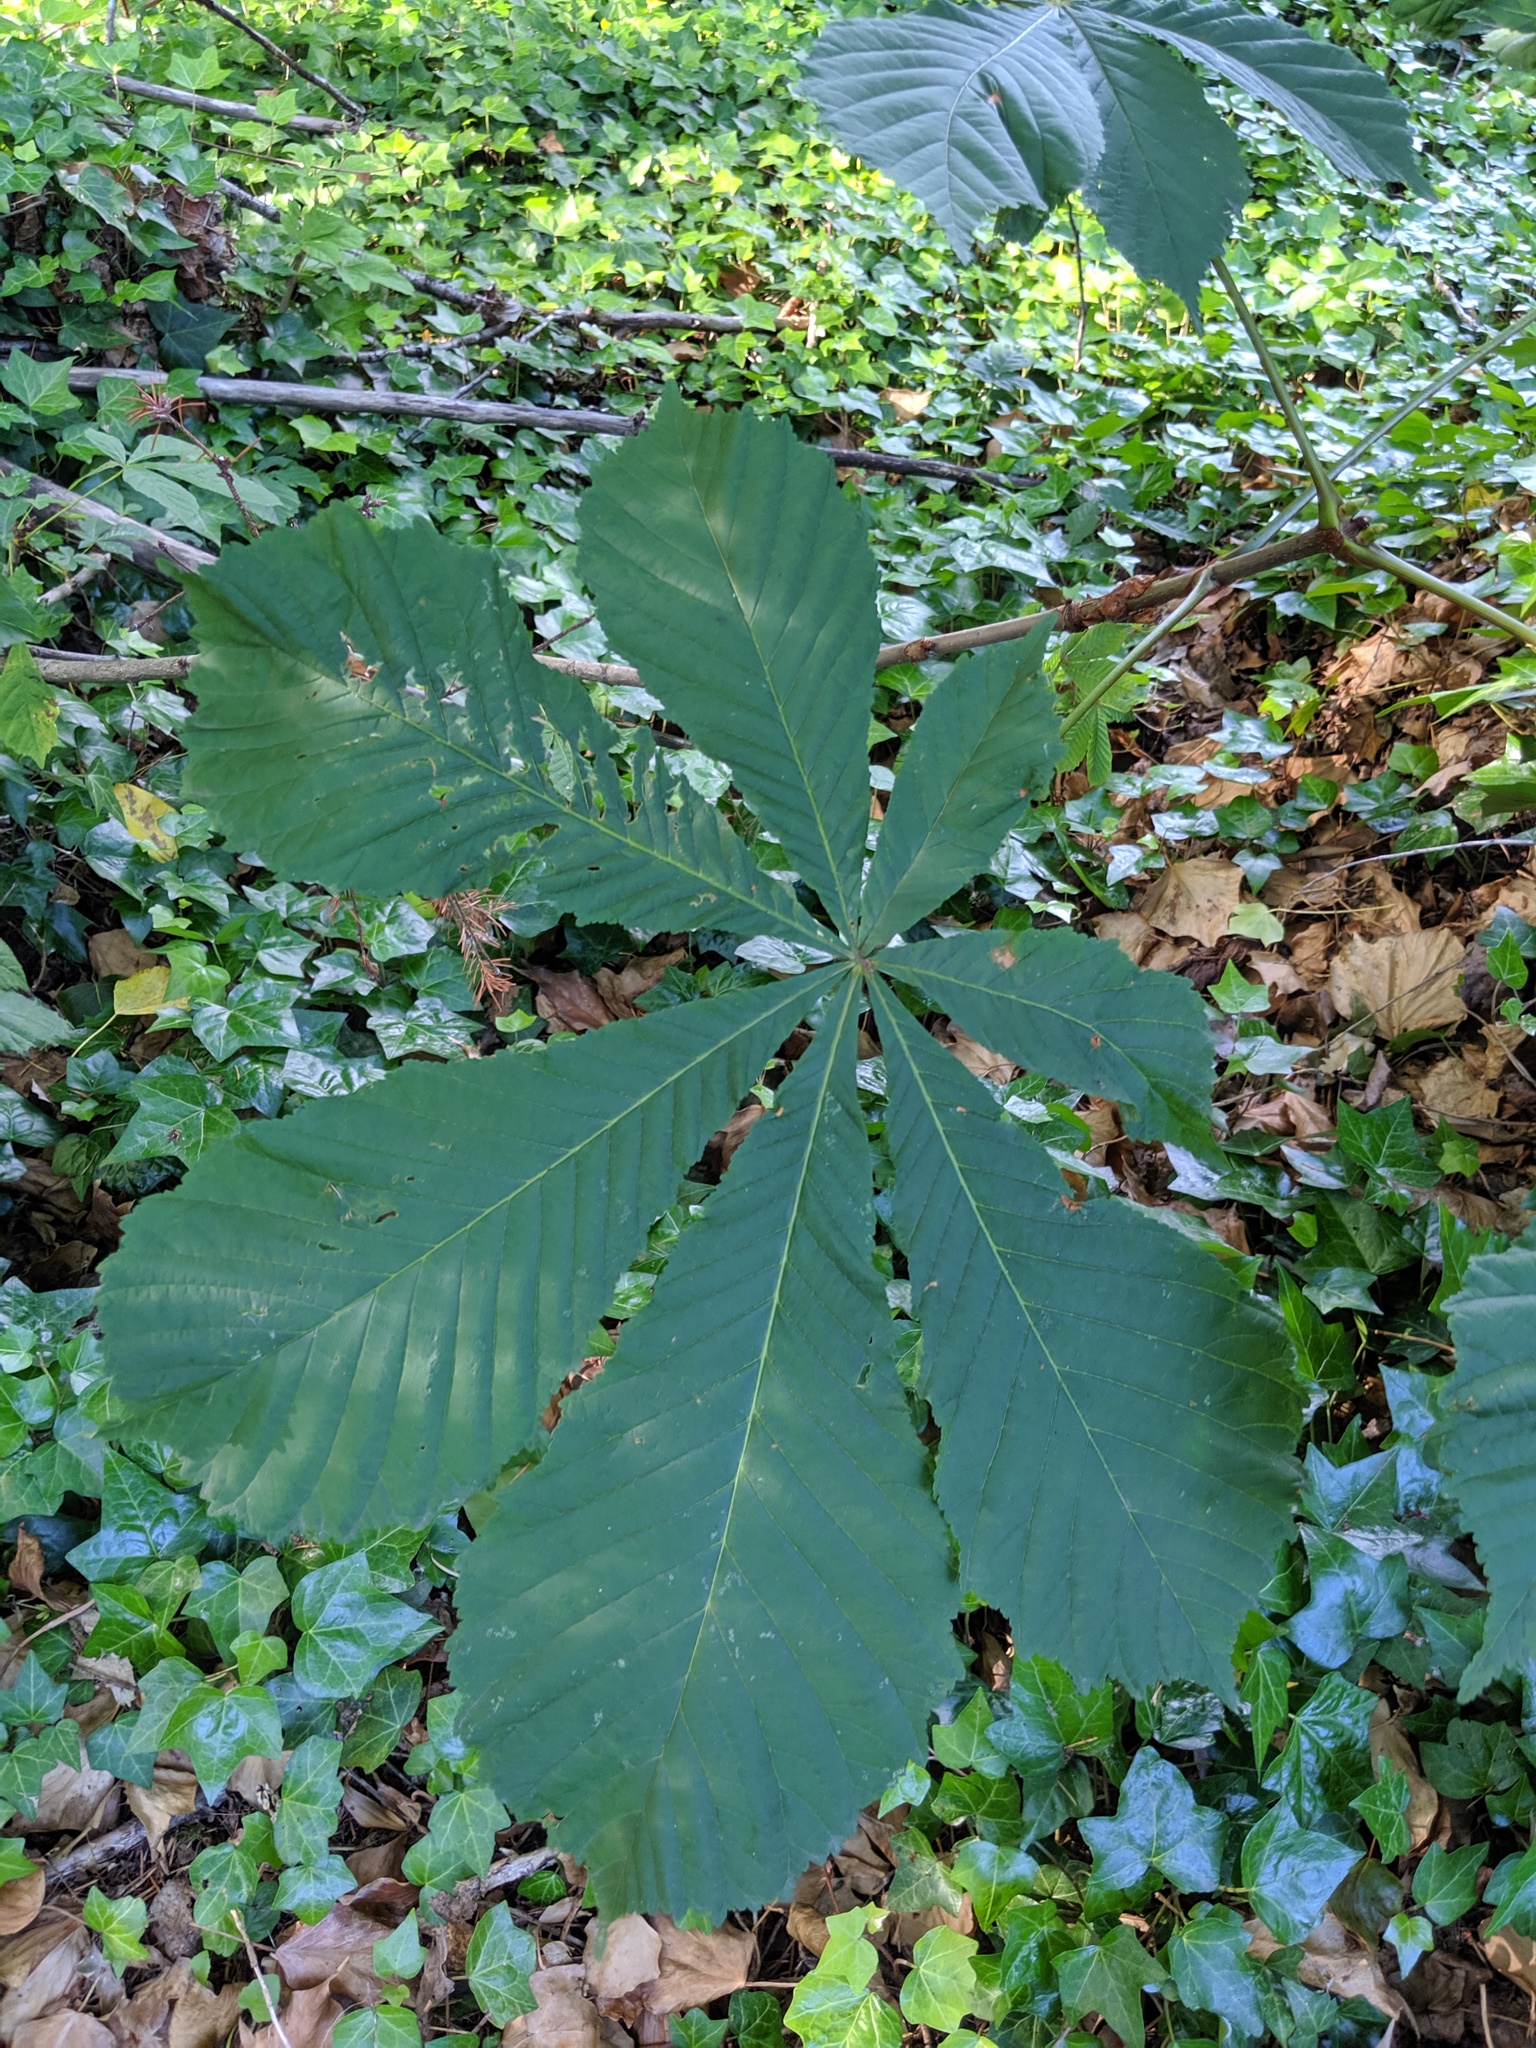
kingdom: Plantae
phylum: Tracheophyta
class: Magnoliopsida
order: Sapindales
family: Sapindaceae
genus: Aesculus
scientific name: Aesculus hippocastanum
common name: Horse-chestnut
